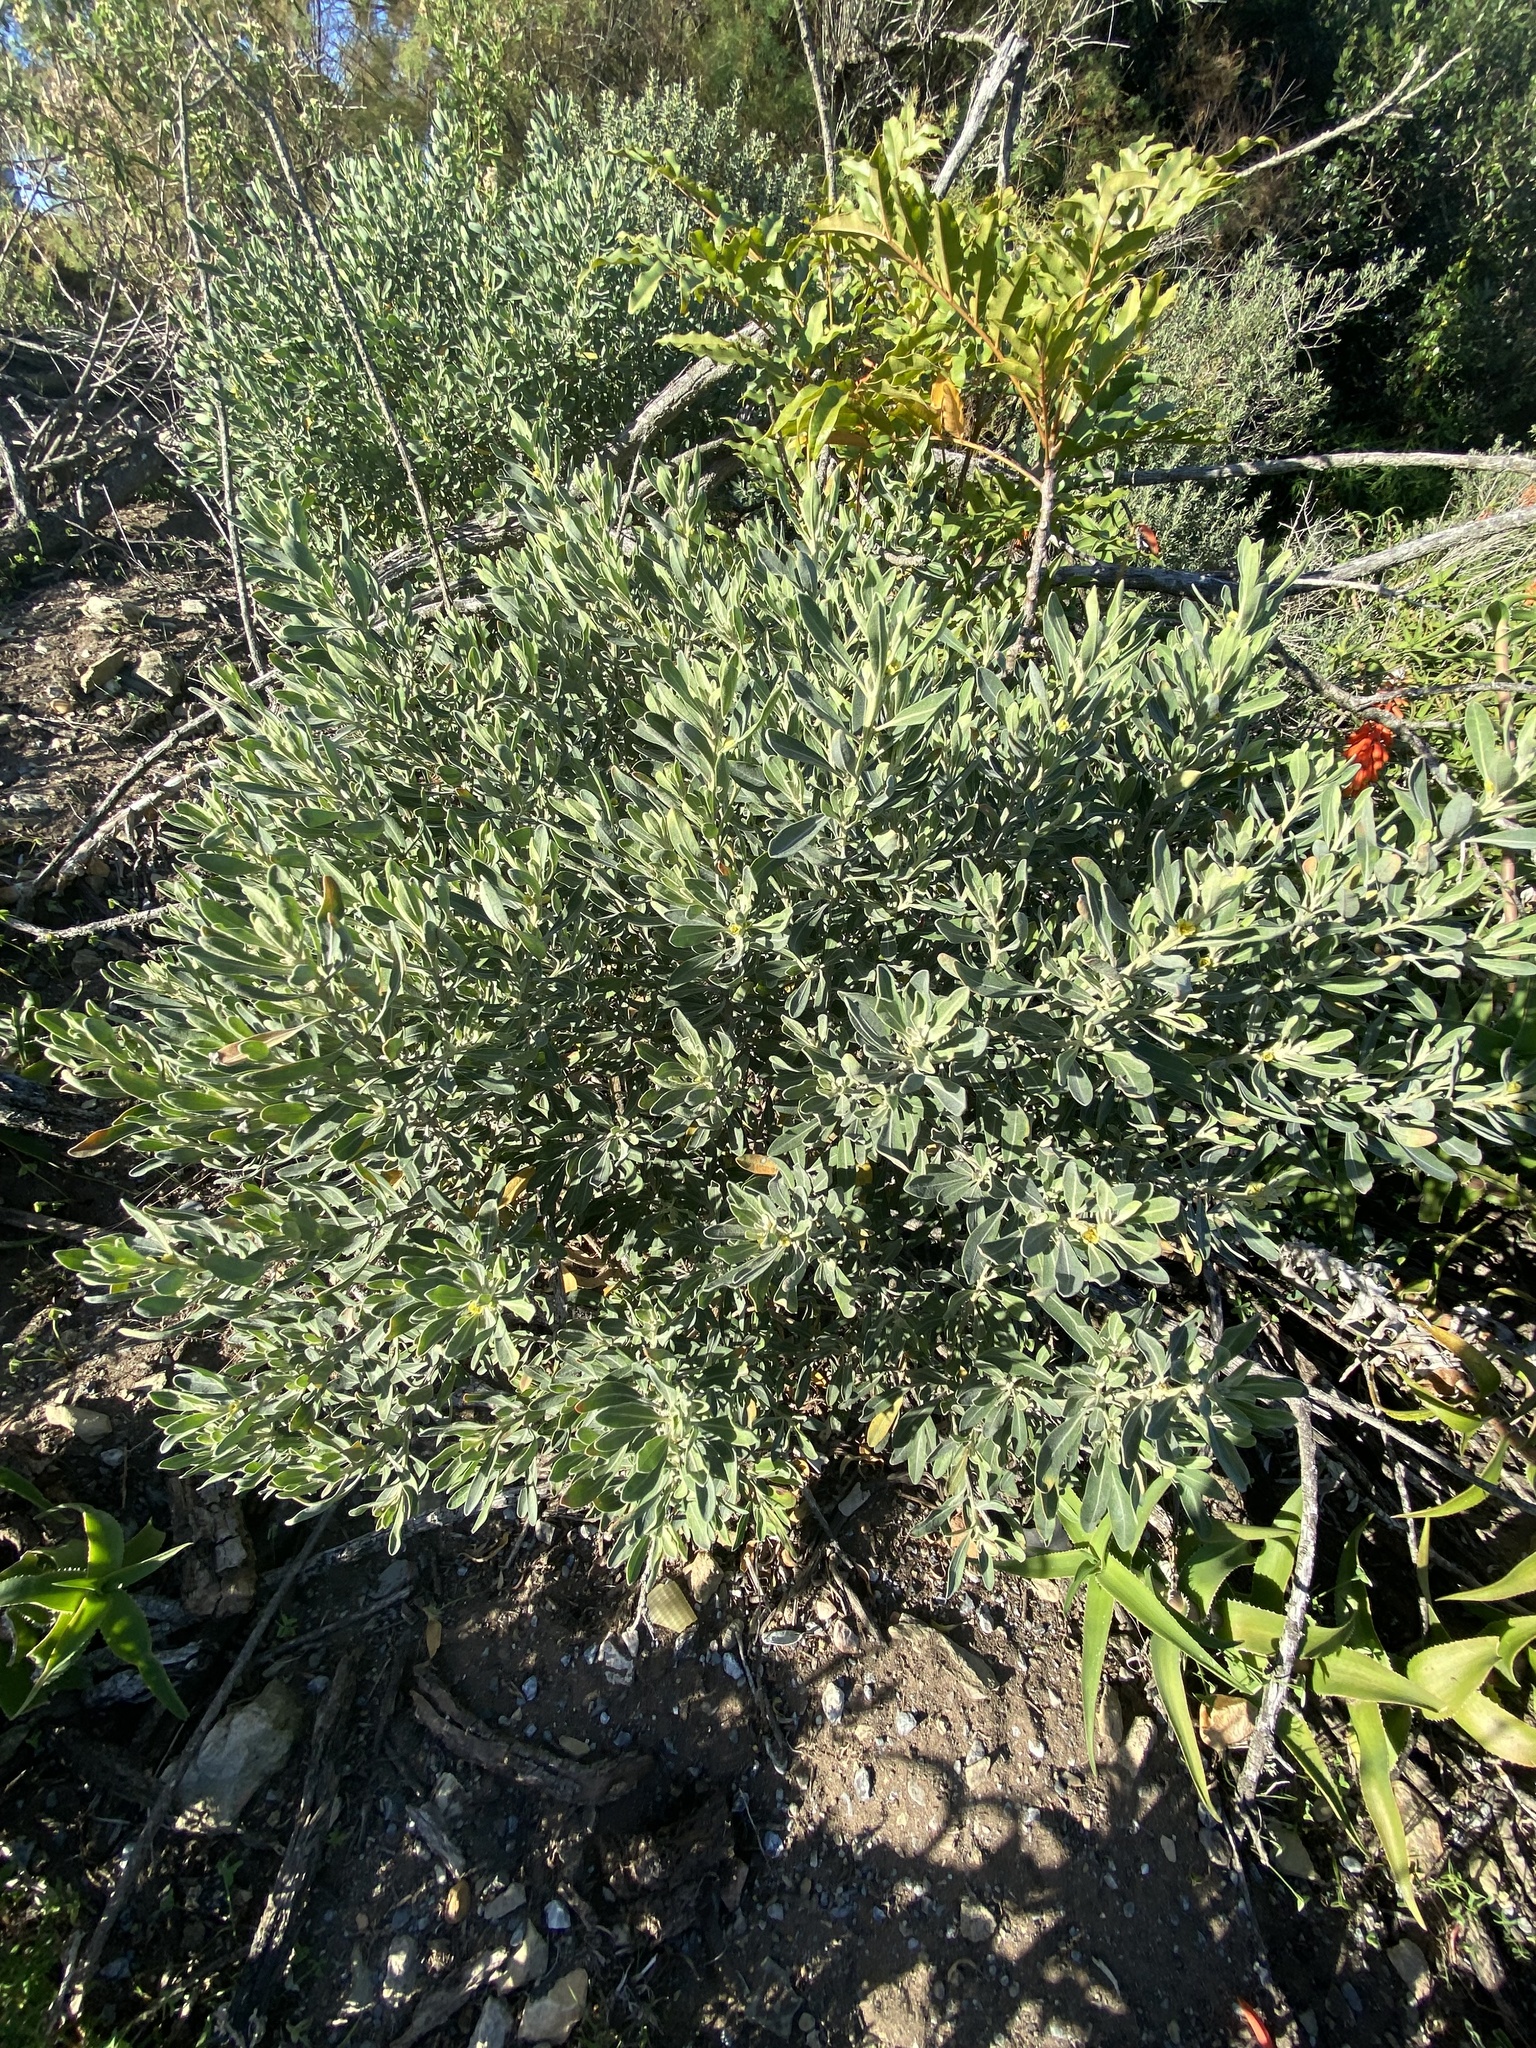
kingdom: Plantae
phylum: Tracheophyta
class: Magnoliopsida
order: Malpighiales
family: Peraceae
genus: Clutia
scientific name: Clutia daphnoides
